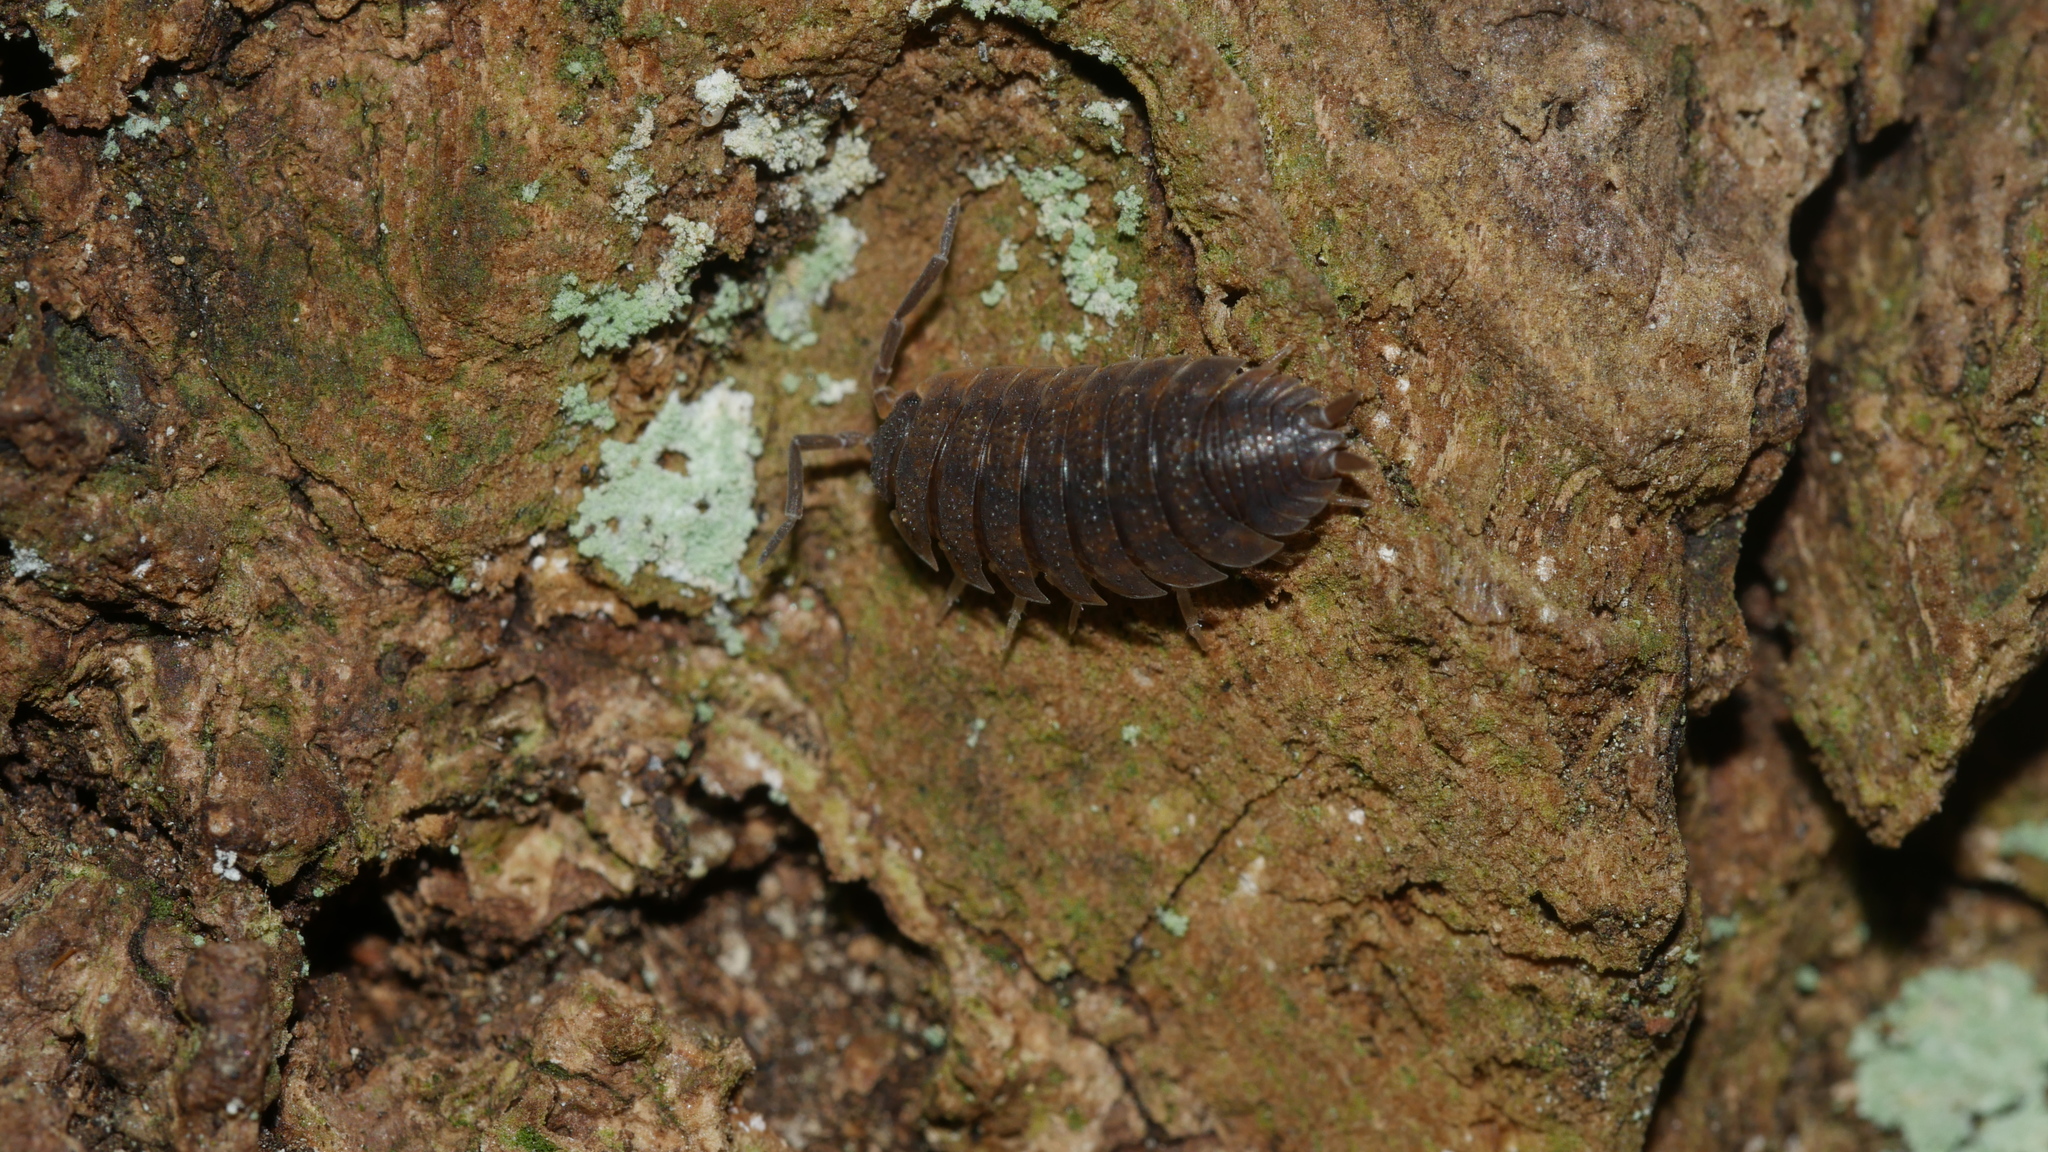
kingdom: Animalia
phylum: Arthropoda
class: Malacostraca
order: Isopoda
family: Porcellionidae
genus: Porcellio
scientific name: Porcellio scaber
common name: Common rough woodlouse
